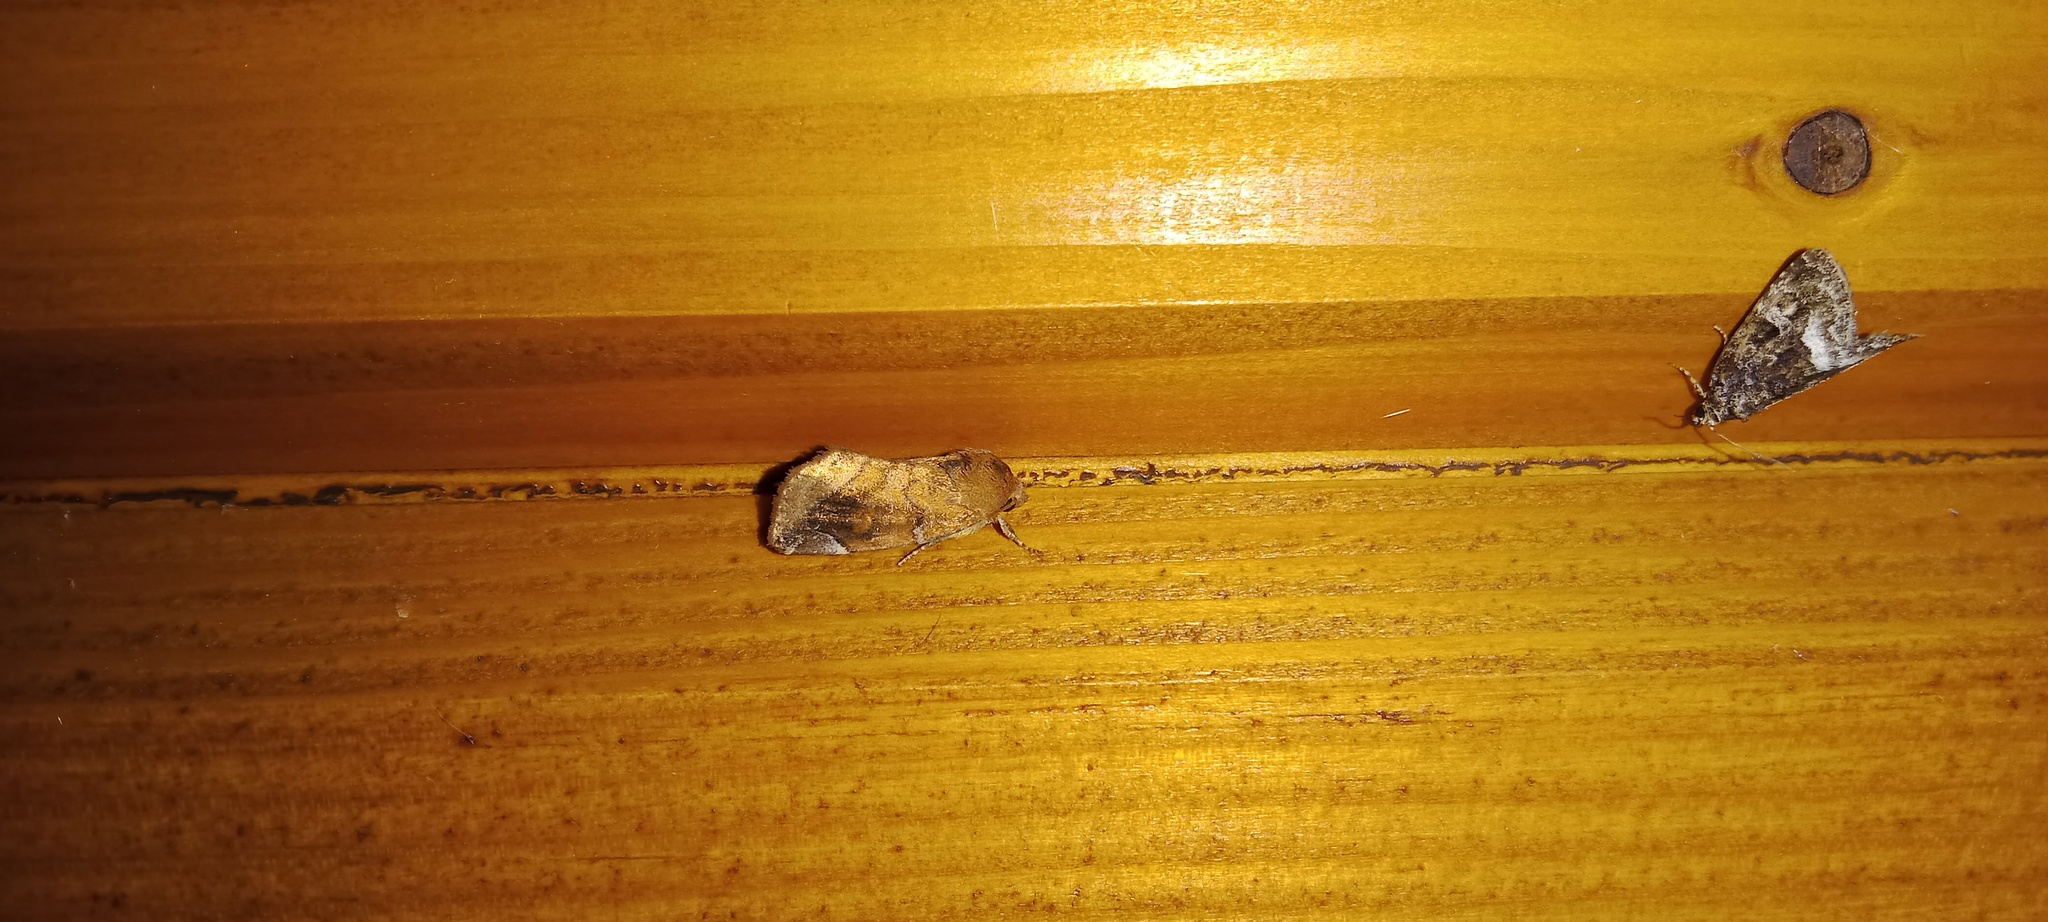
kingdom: Animalia
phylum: Arthropoda
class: Insecta
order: Lepidoptera
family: Noctuidae
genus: Cosmia
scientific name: Cosmia pyralina
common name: Lunar-spotted pinion
